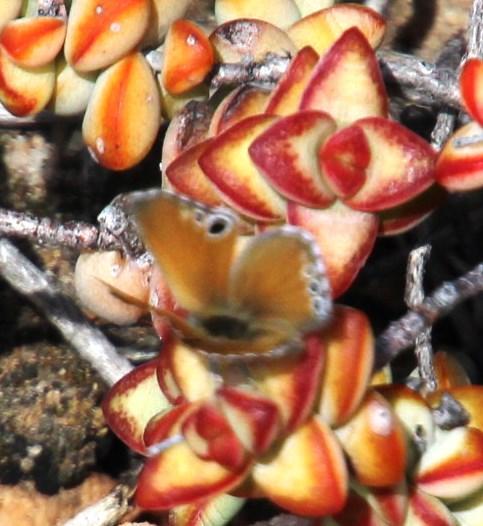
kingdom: Animalia
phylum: Arthropoda
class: Insecta
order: Lepidoptera
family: Lycaenidae
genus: Leptomyrina
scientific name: Leptomyrina lara
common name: Cape black-eye
